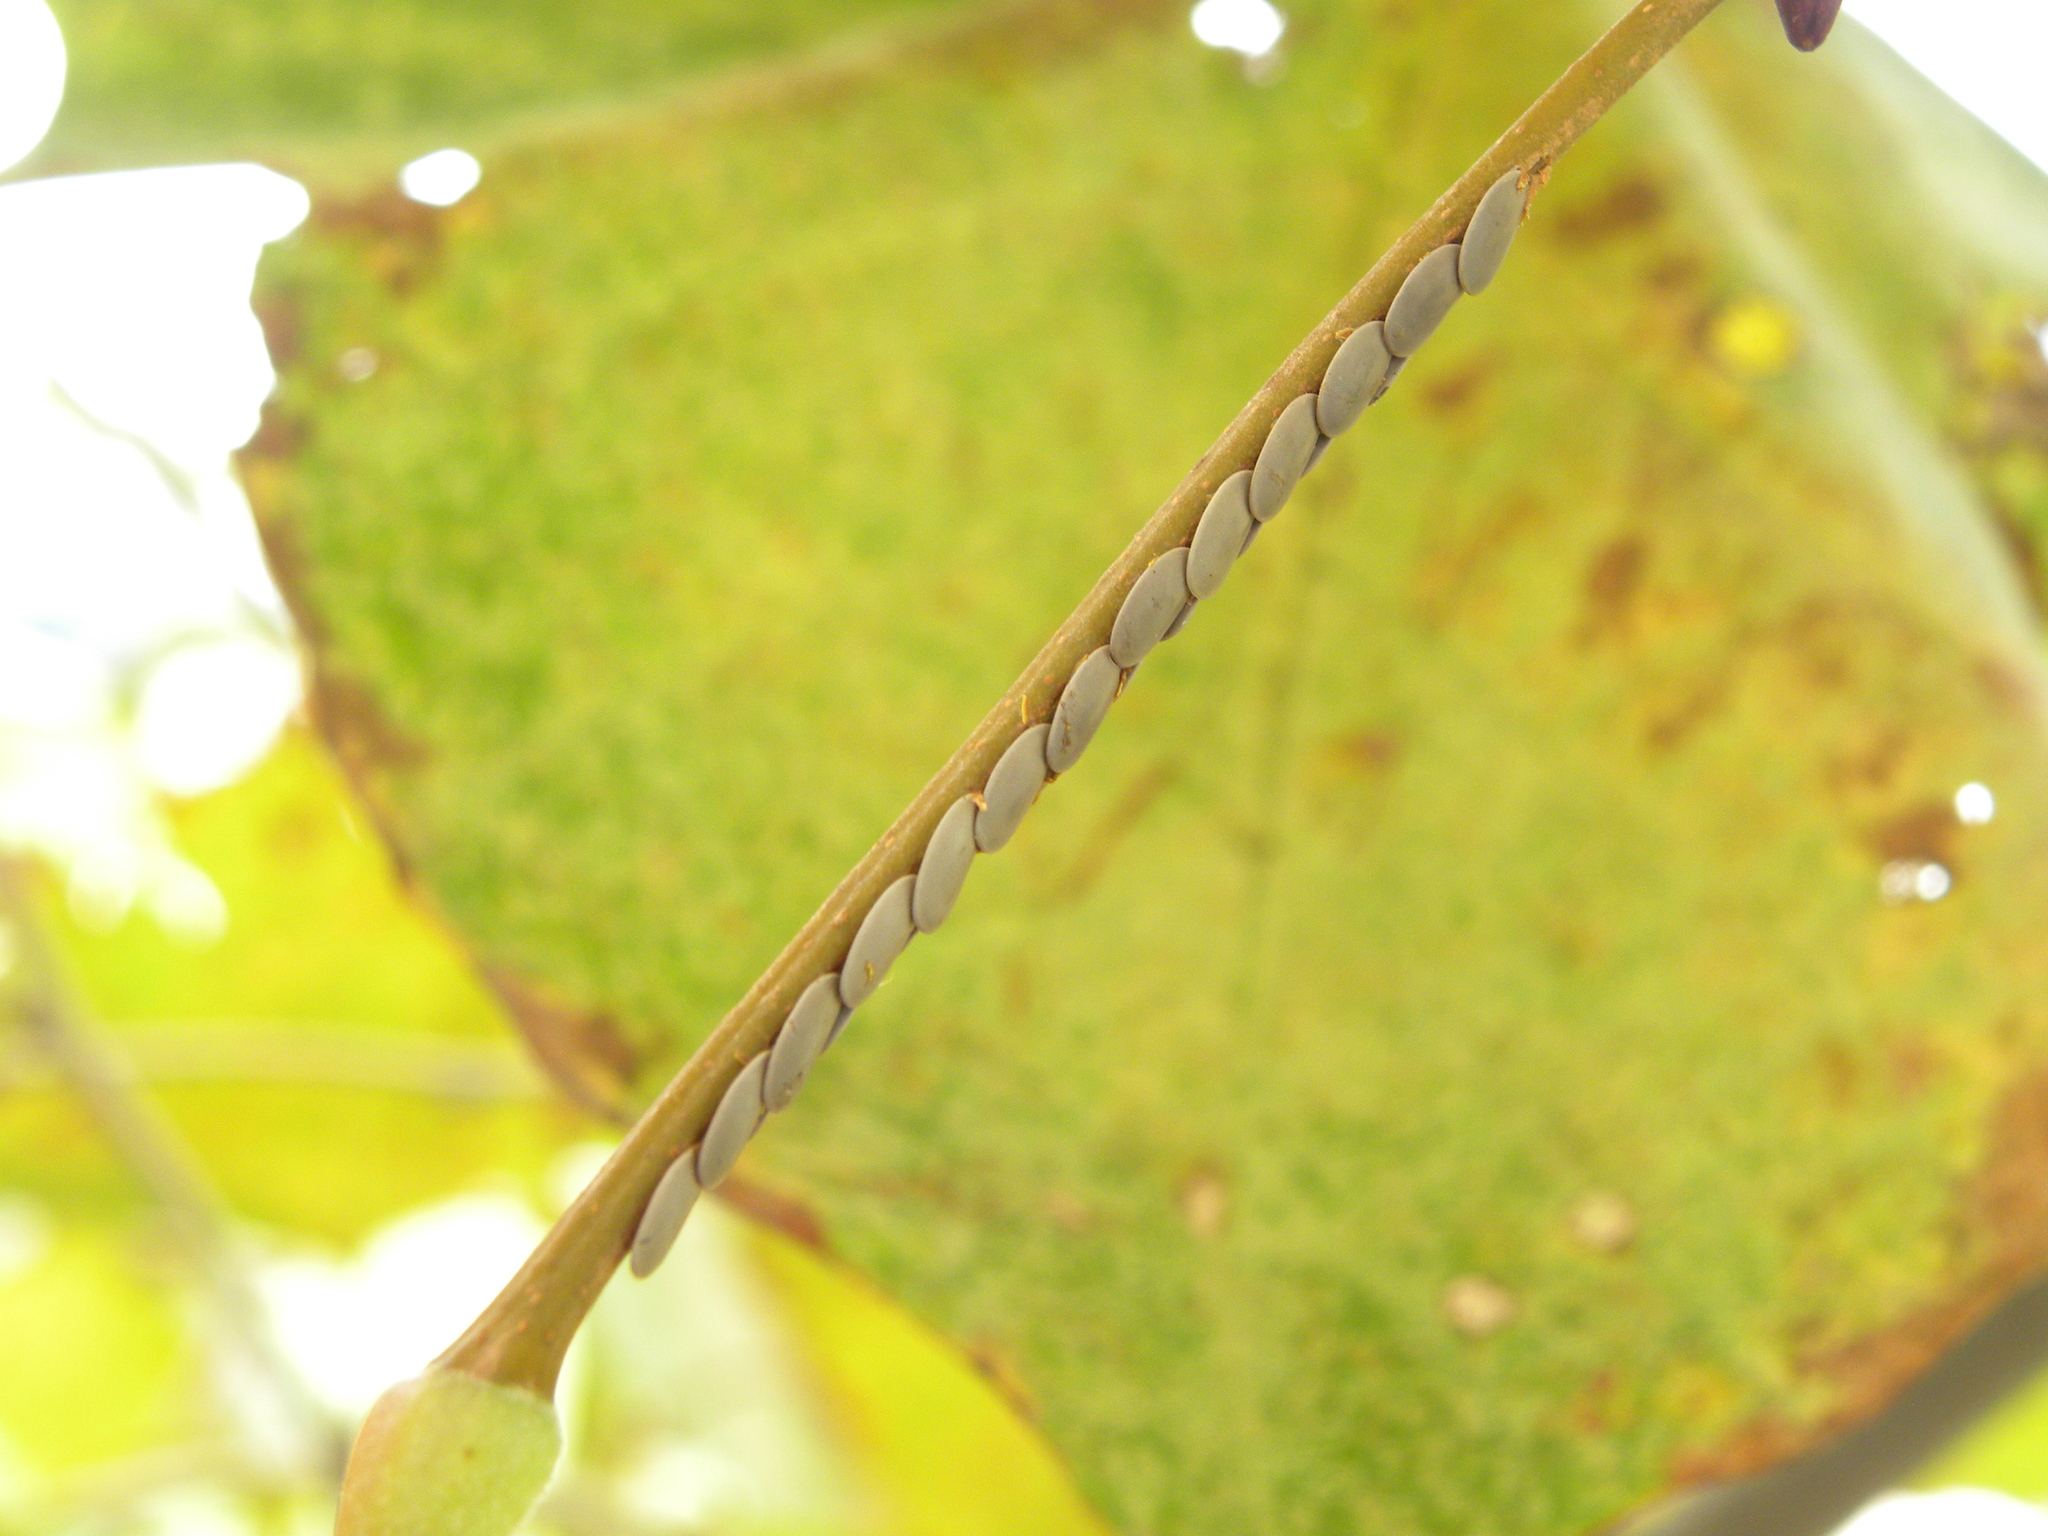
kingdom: Animalia
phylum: Arthropoda
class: Insecta
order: Orthoptera
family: Tettigoniidae
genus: Microcentrum
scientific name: Microcentrum
